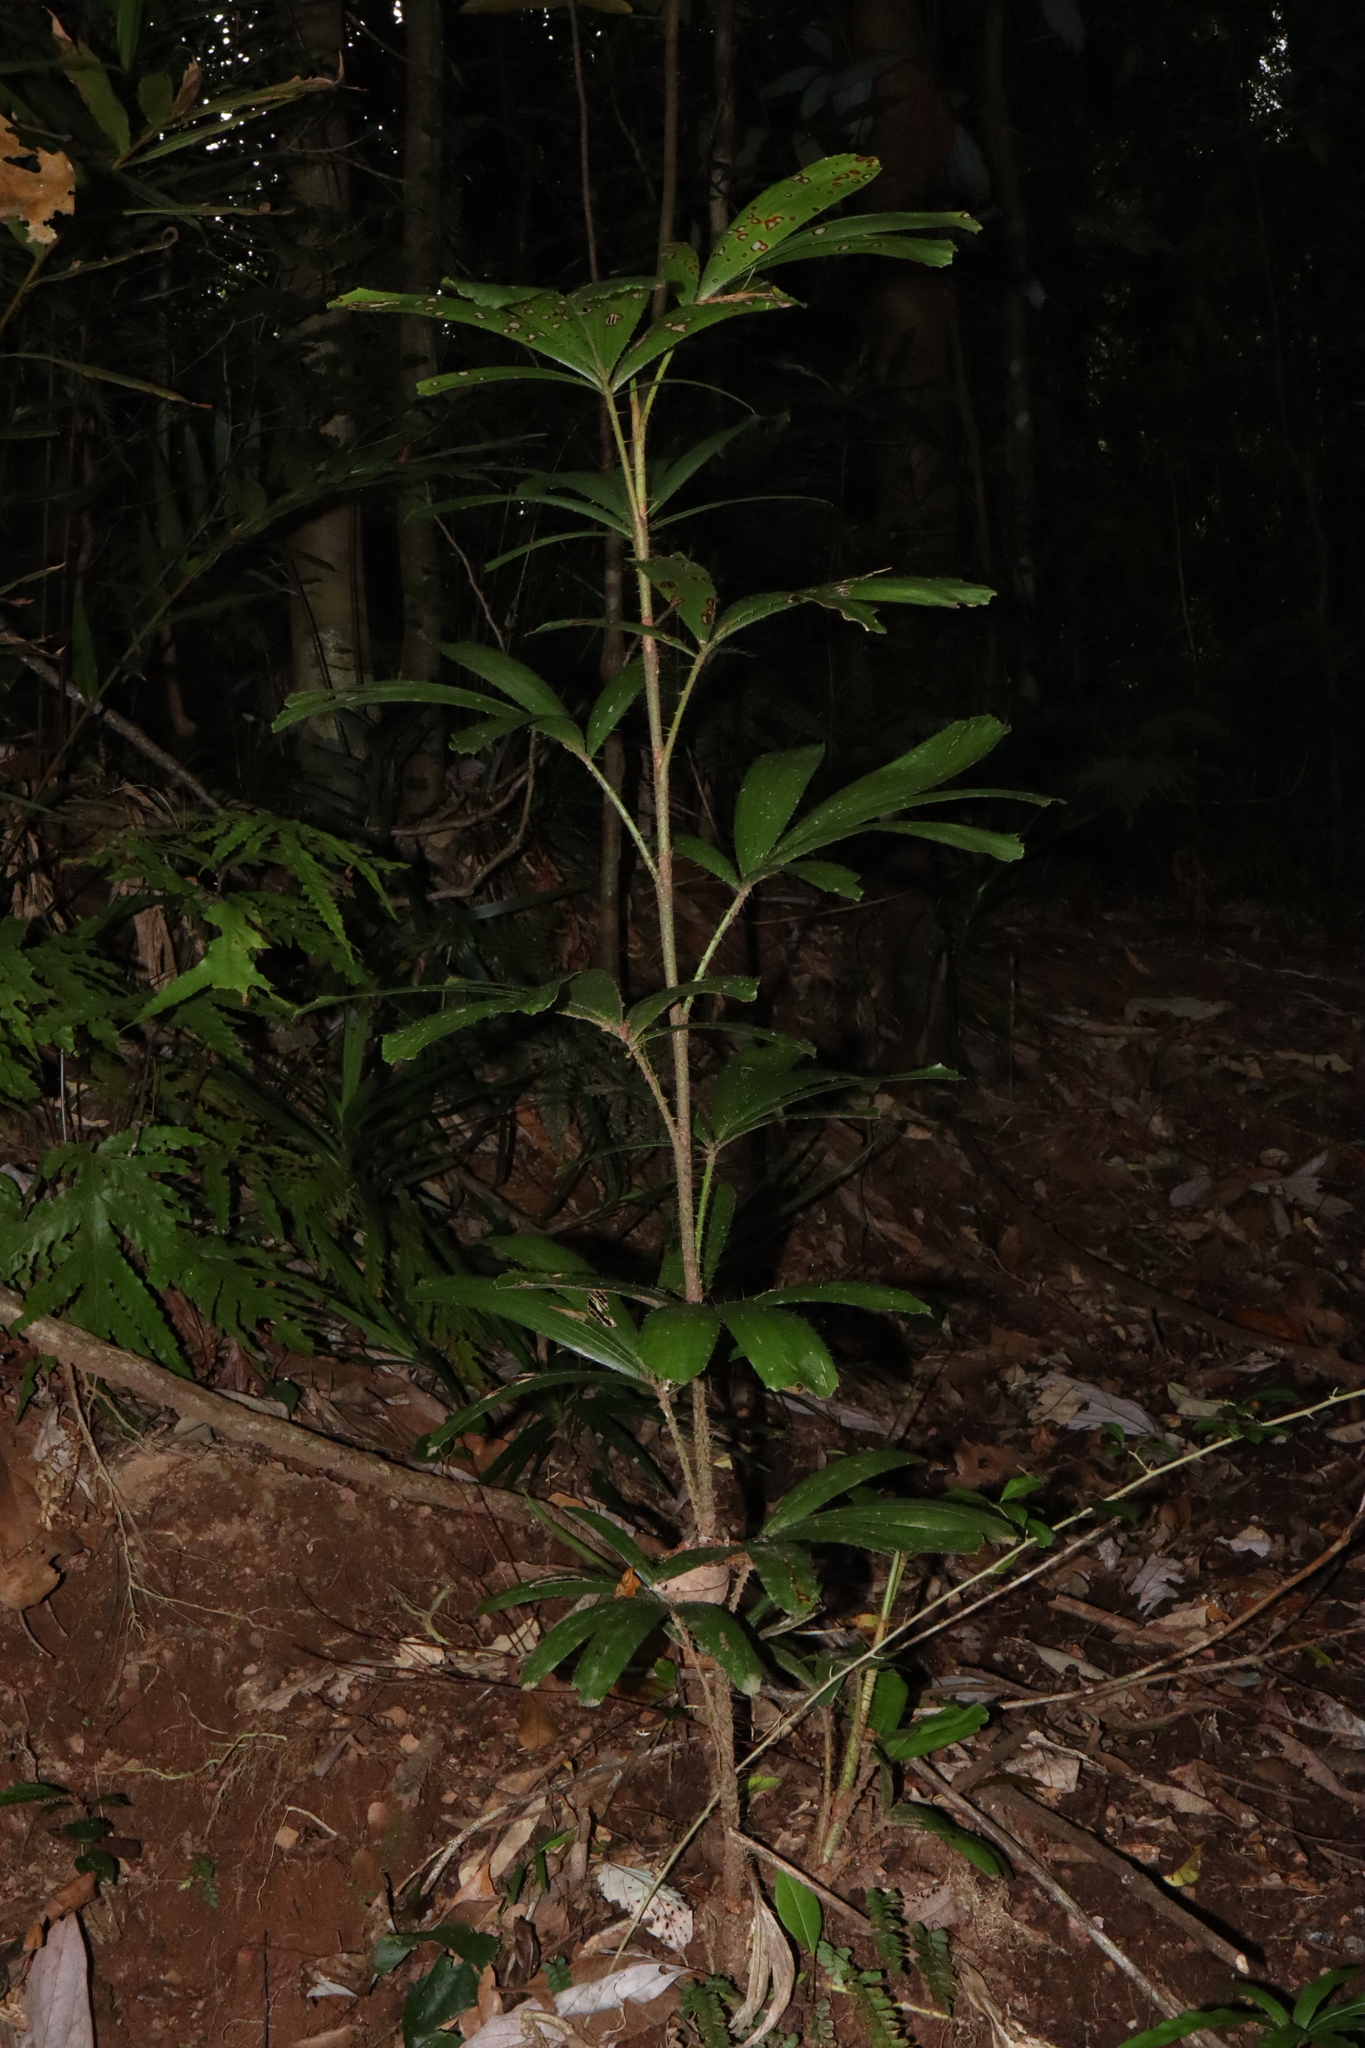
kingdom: Plantae
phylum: Tracheophyta
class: Liliopsida
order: Arecales
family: Arecaceae
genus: Calamus
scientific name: Calamus caryotoides
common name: Fishtail lawyer cane
